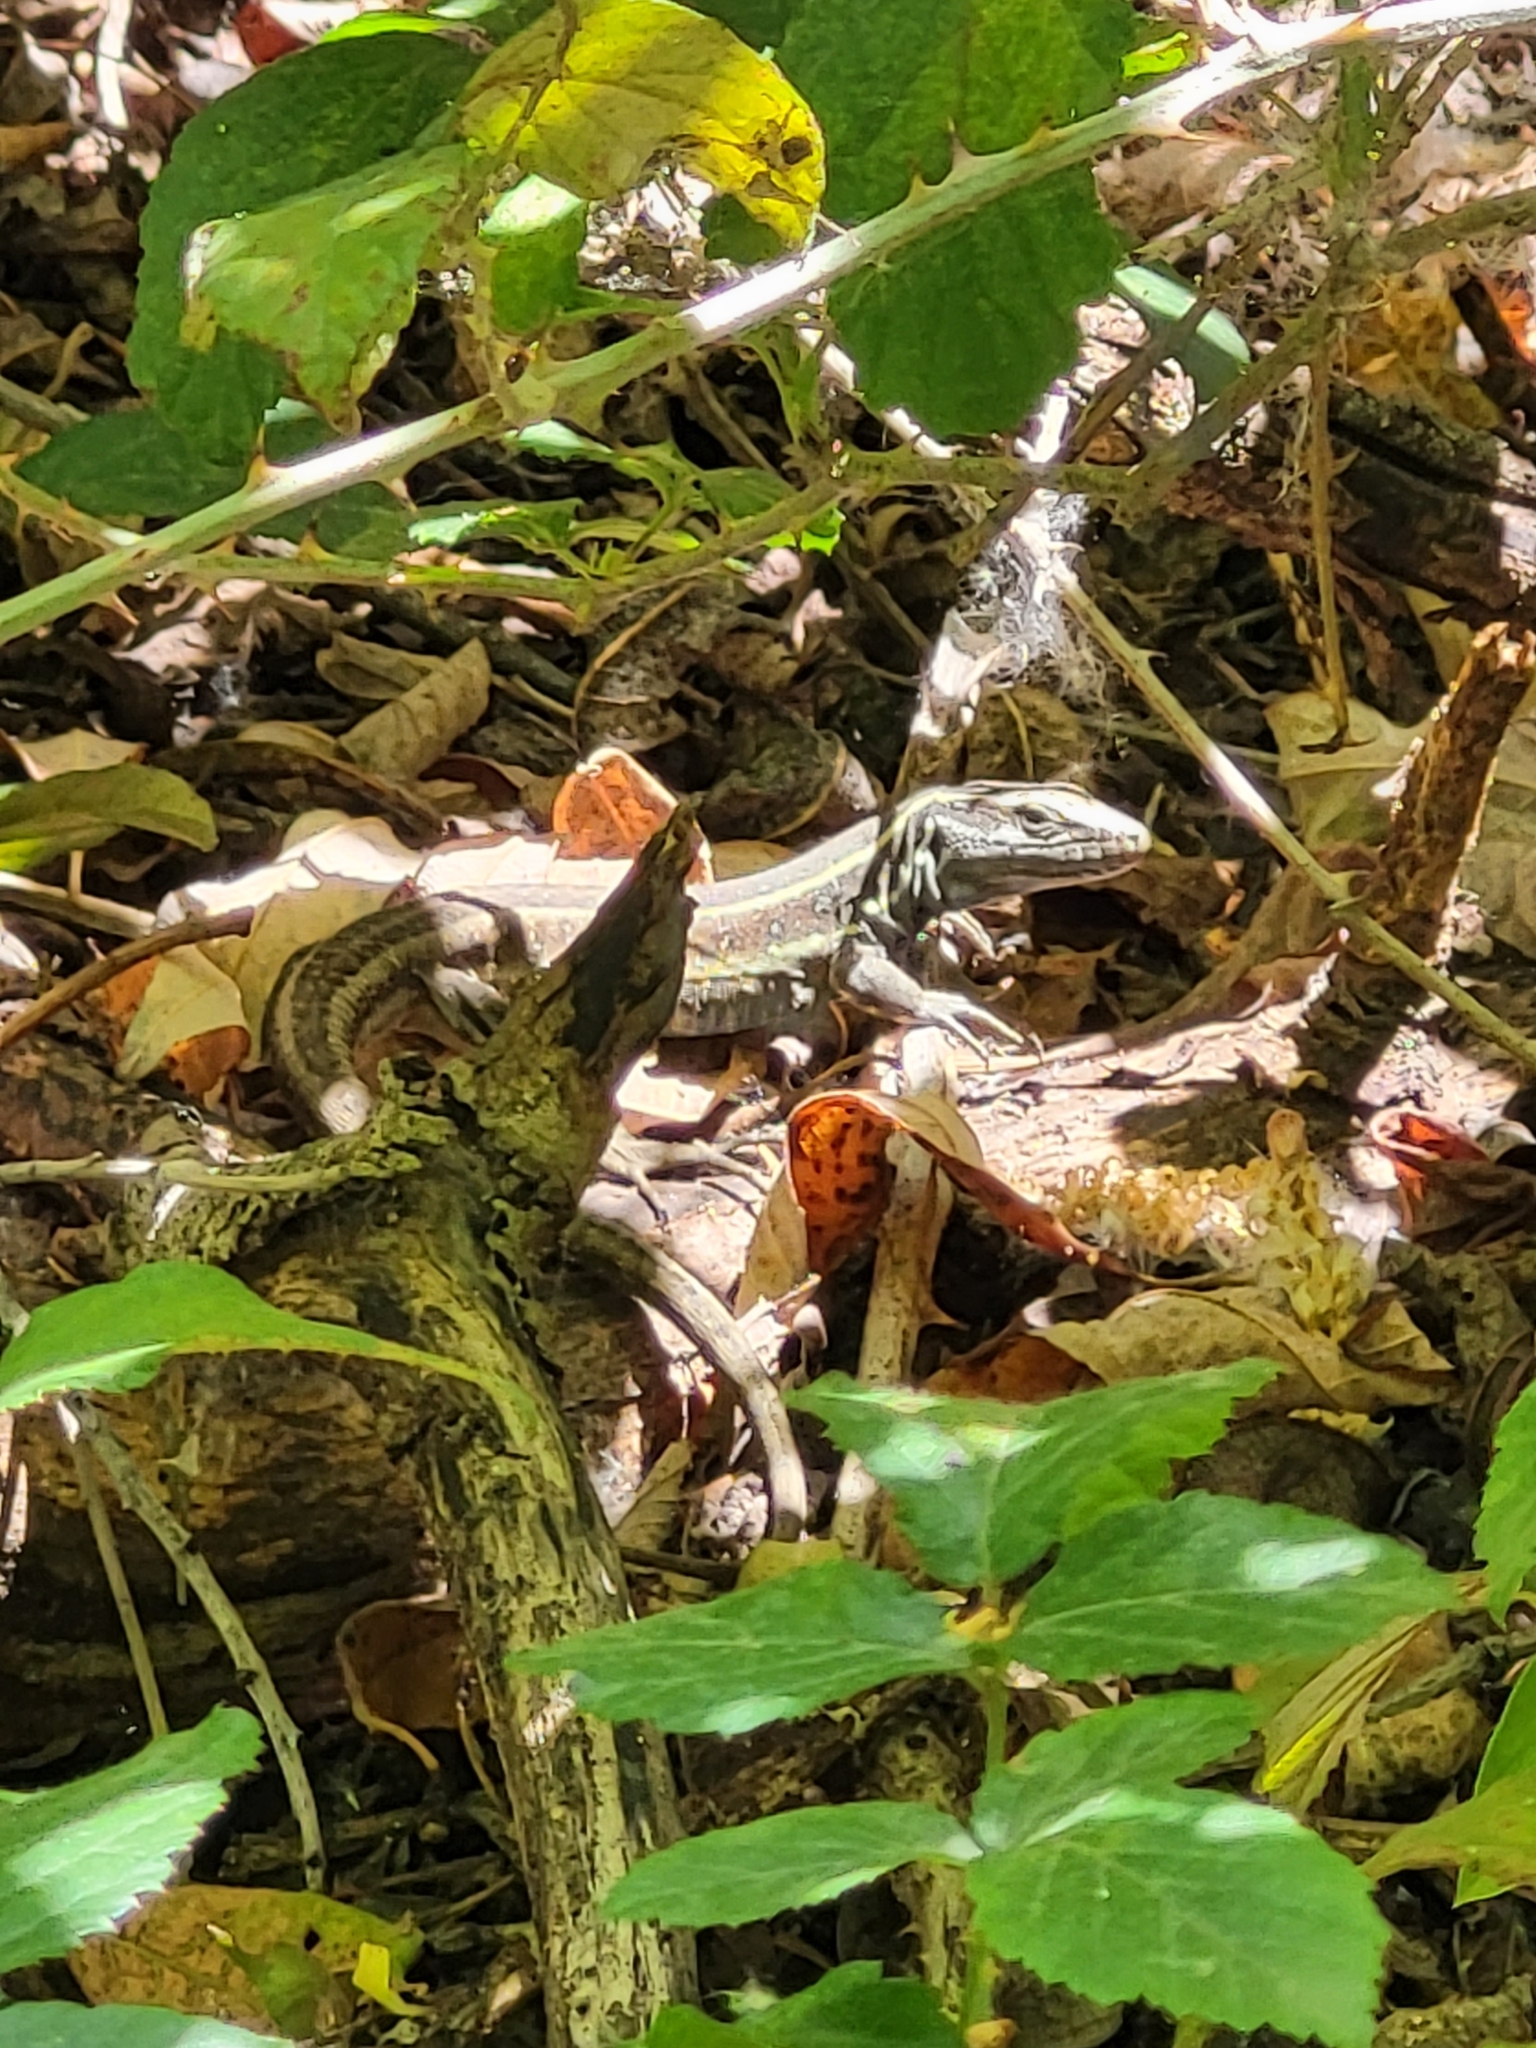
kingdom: Animalia
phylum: Chordata
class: Squamata
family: Lacertidae
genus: Gallotia
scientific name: Gallotia caesaris
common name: Boettger's lizard
